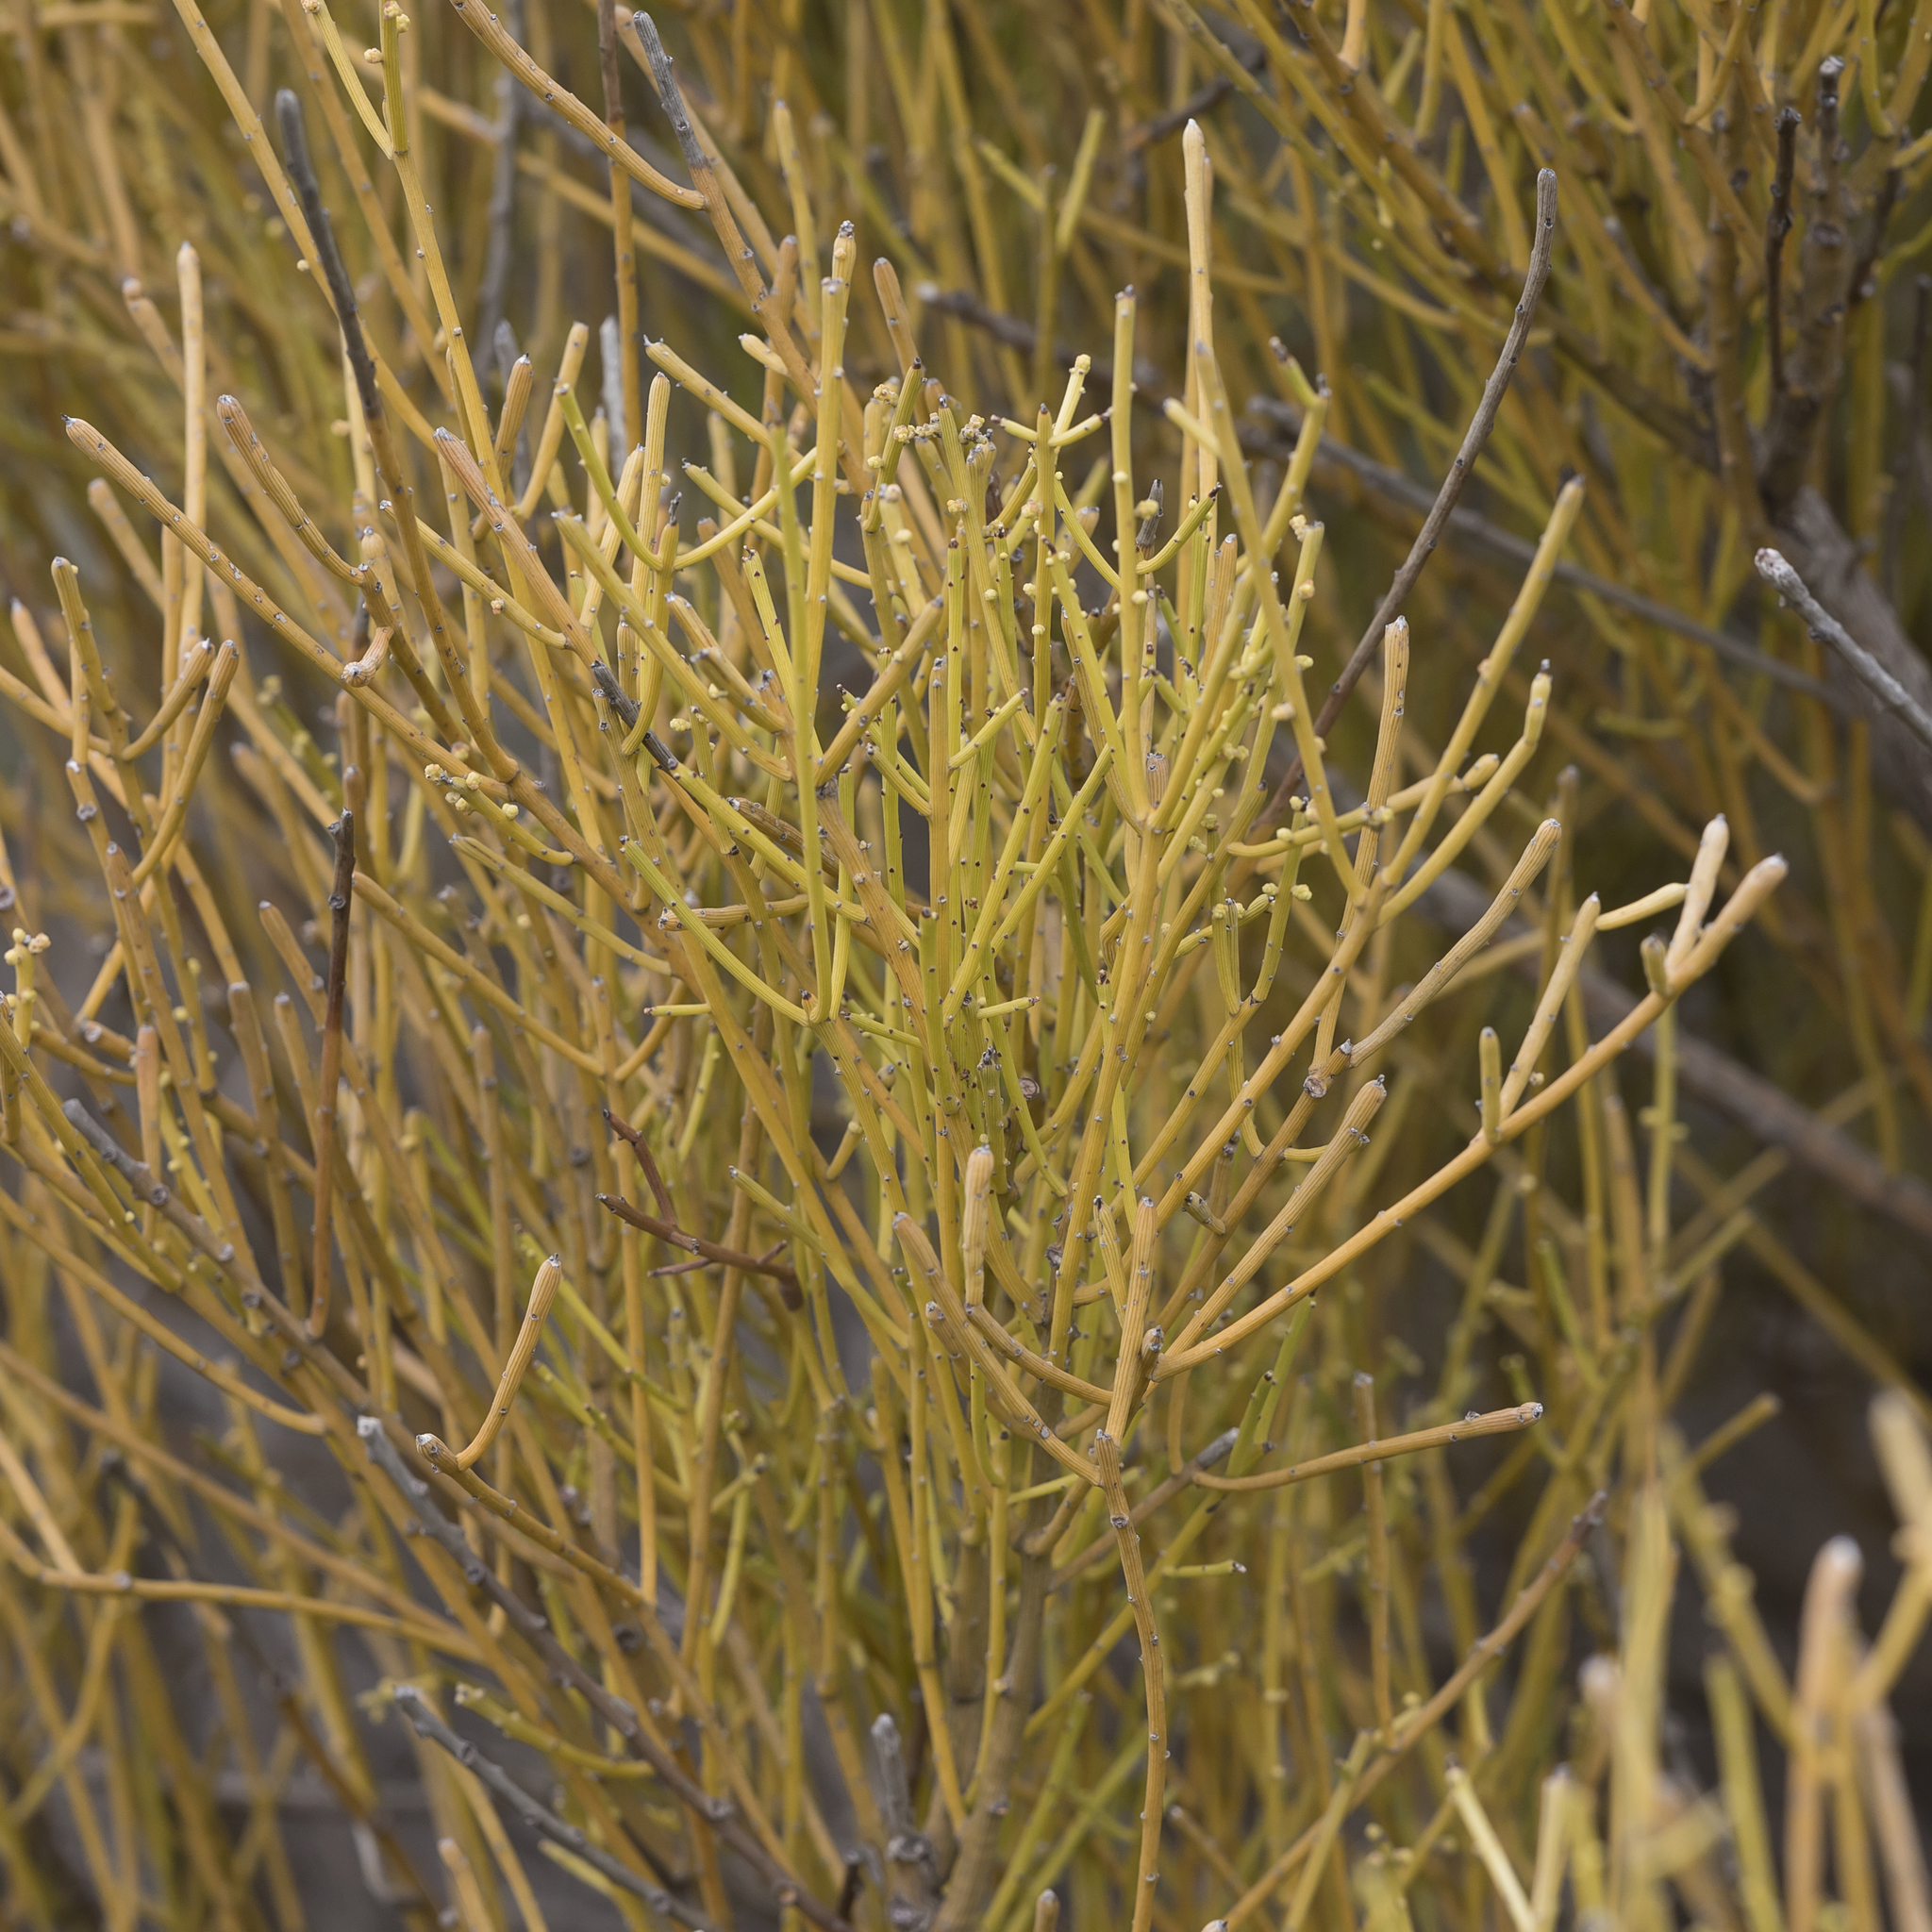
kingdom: Plantae
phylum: Tracheophyta
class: Magnoliopsida
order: Santalales
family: Santalaceae
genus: Exocarpos
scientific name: Exocarpos aphyllus
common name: Leafless ballart
